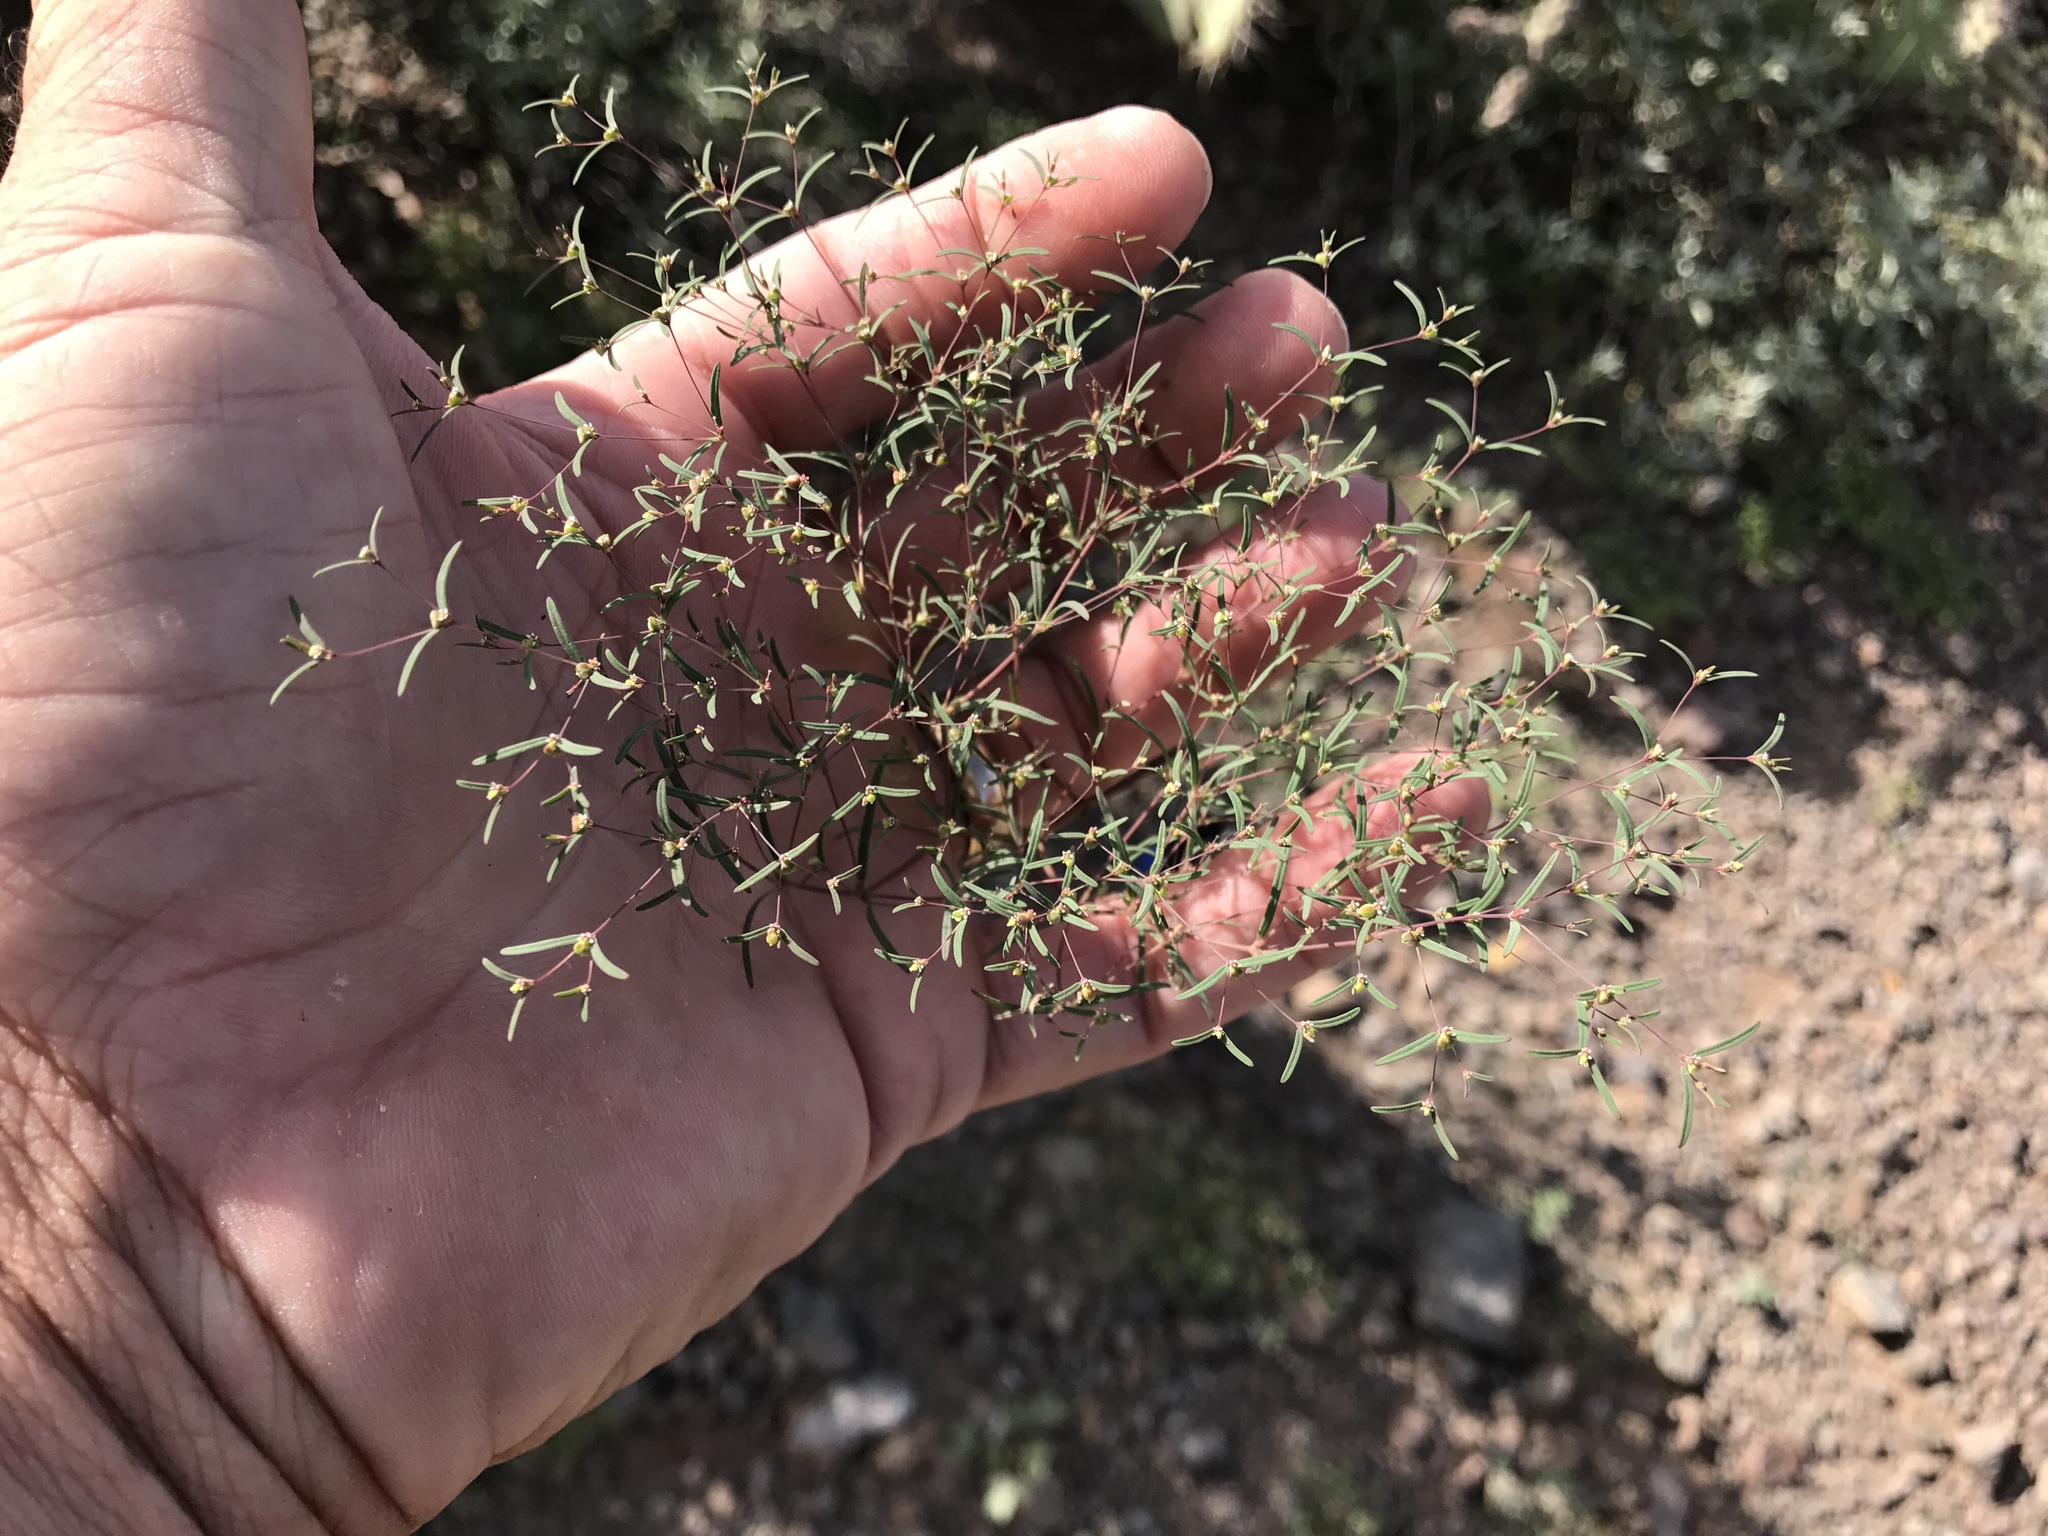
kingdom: Plantae
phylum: Tracheophyta
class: Magnoliopsida
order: Malpighiales
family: Euphorbiaceae
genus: Euphorbia
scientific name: Euphorbia gracillima
